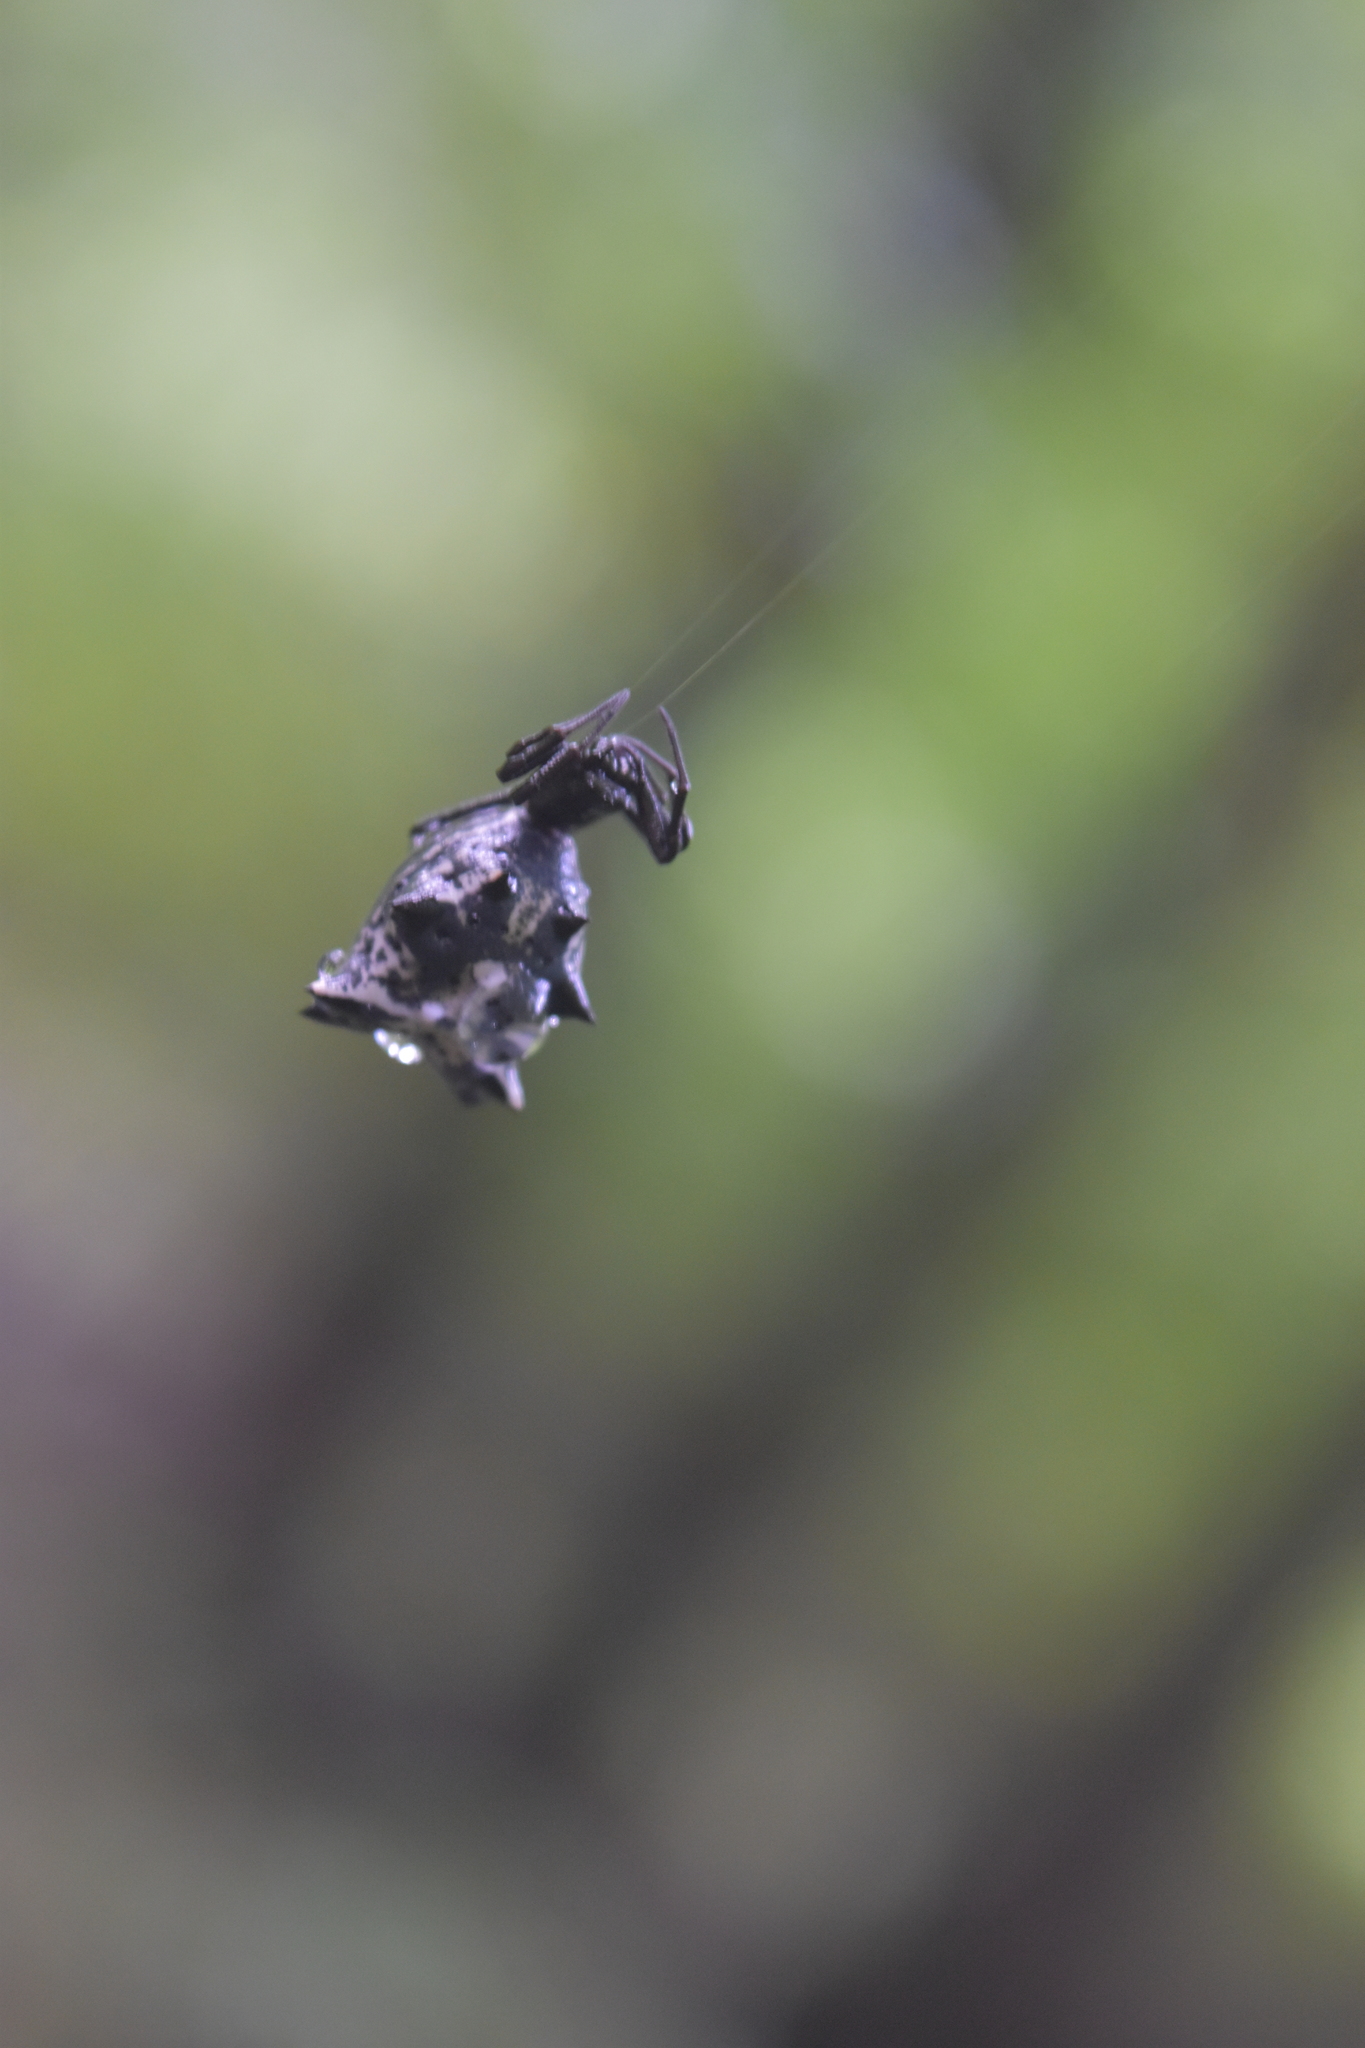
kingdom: Animalia
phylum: Arthropoda
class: Arachnida
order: Araneae
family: Araneidae
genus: Micrathena
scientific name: Micrathena gracilis
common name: Orb weavers
